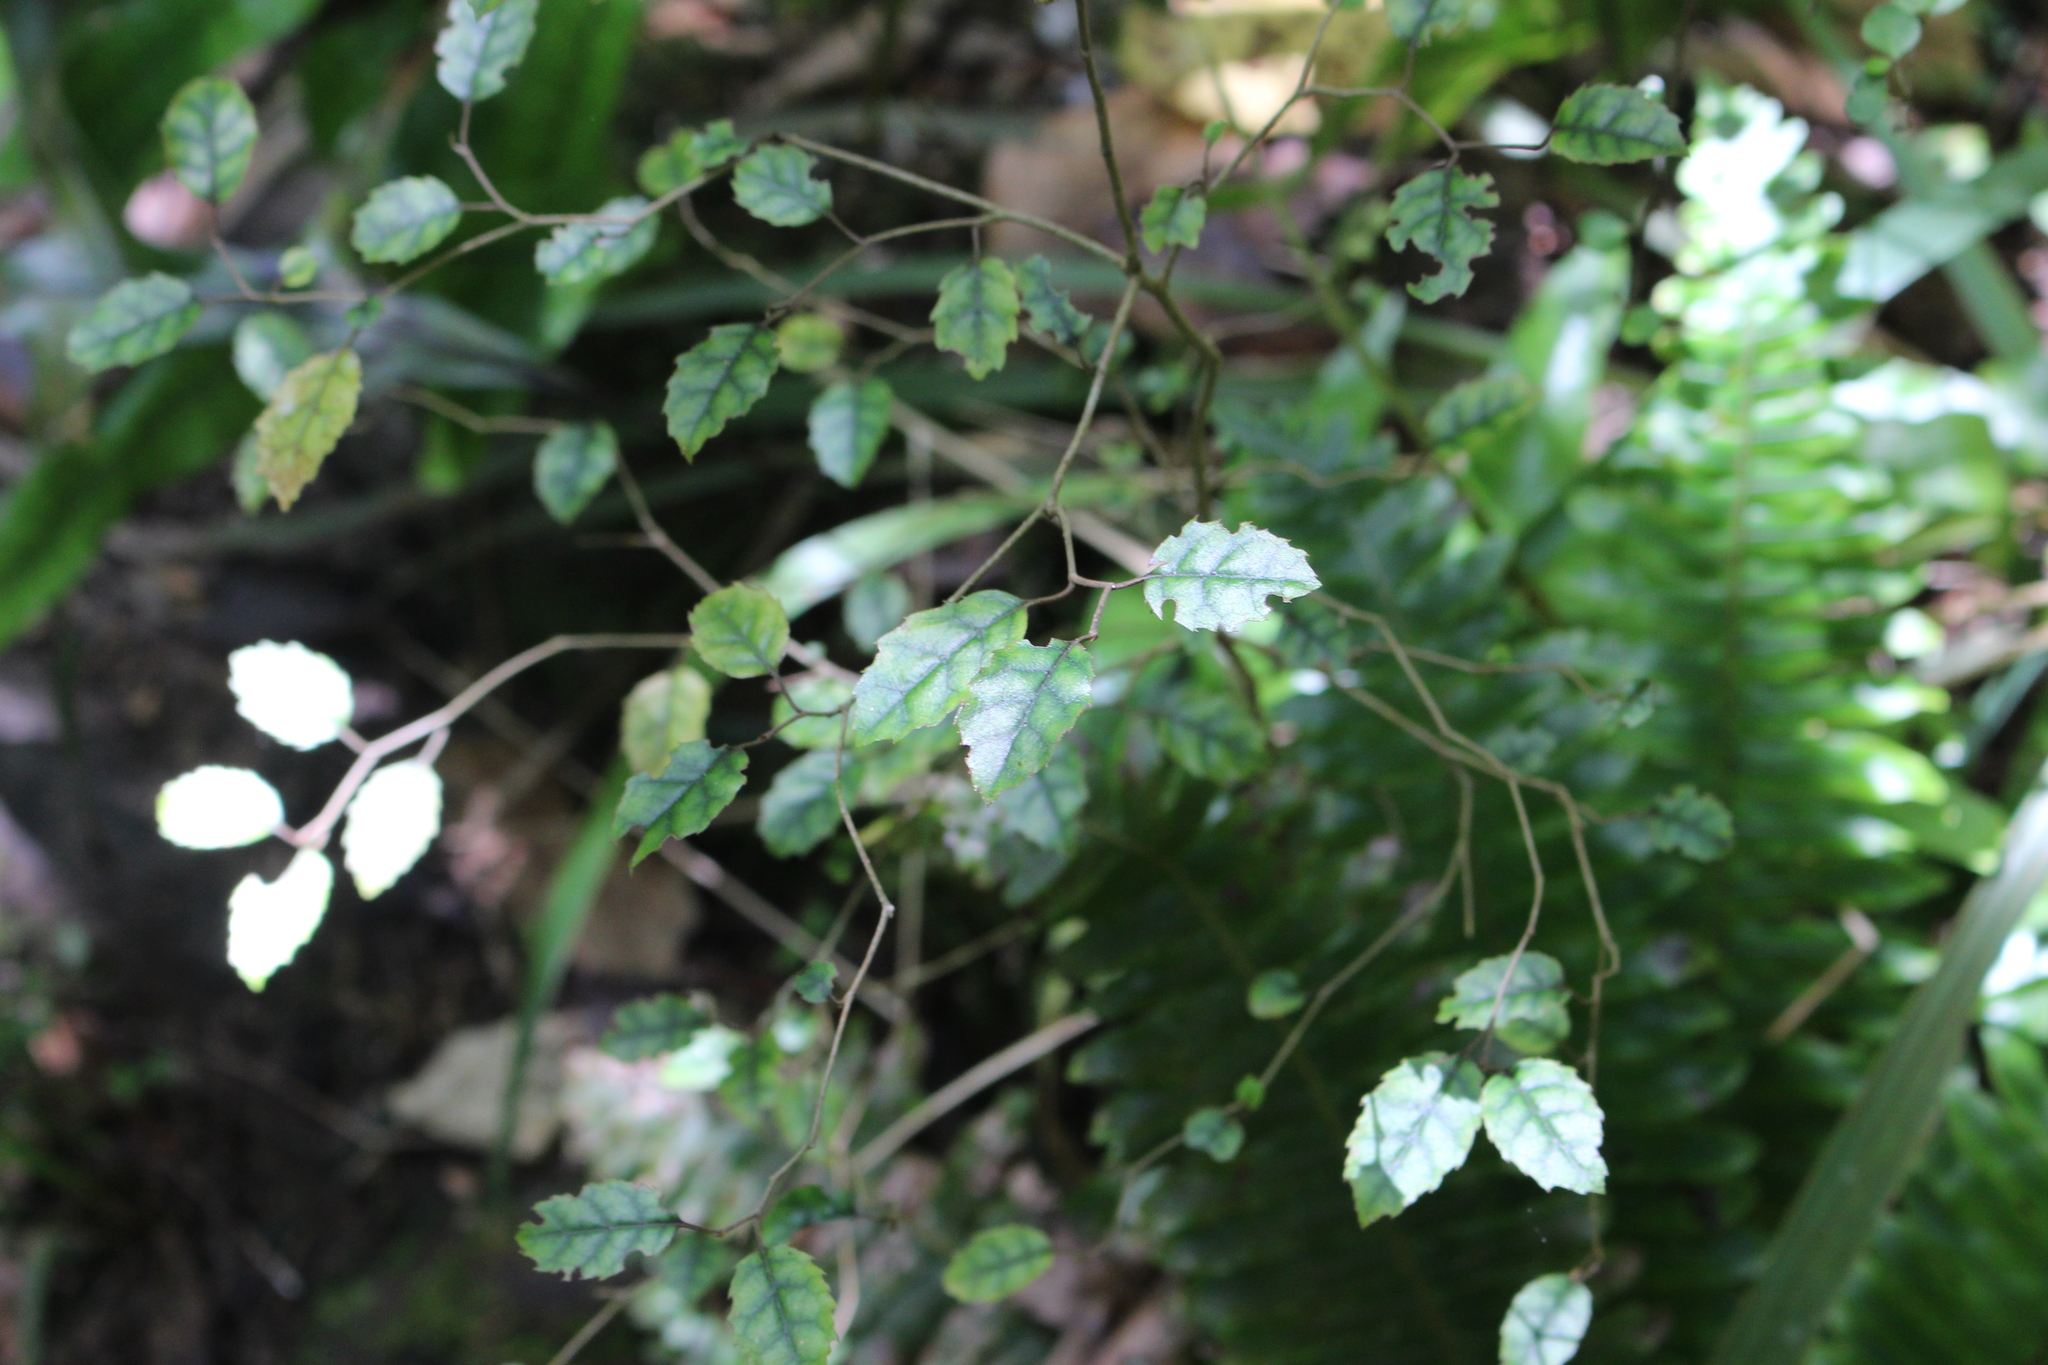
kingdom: Plantae
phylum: Tracheophyta
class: Magnoliopsida
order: Asterales
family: Rousseaceae
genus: Carpodetus
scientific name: Carpodetus serratus
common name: White mapau
